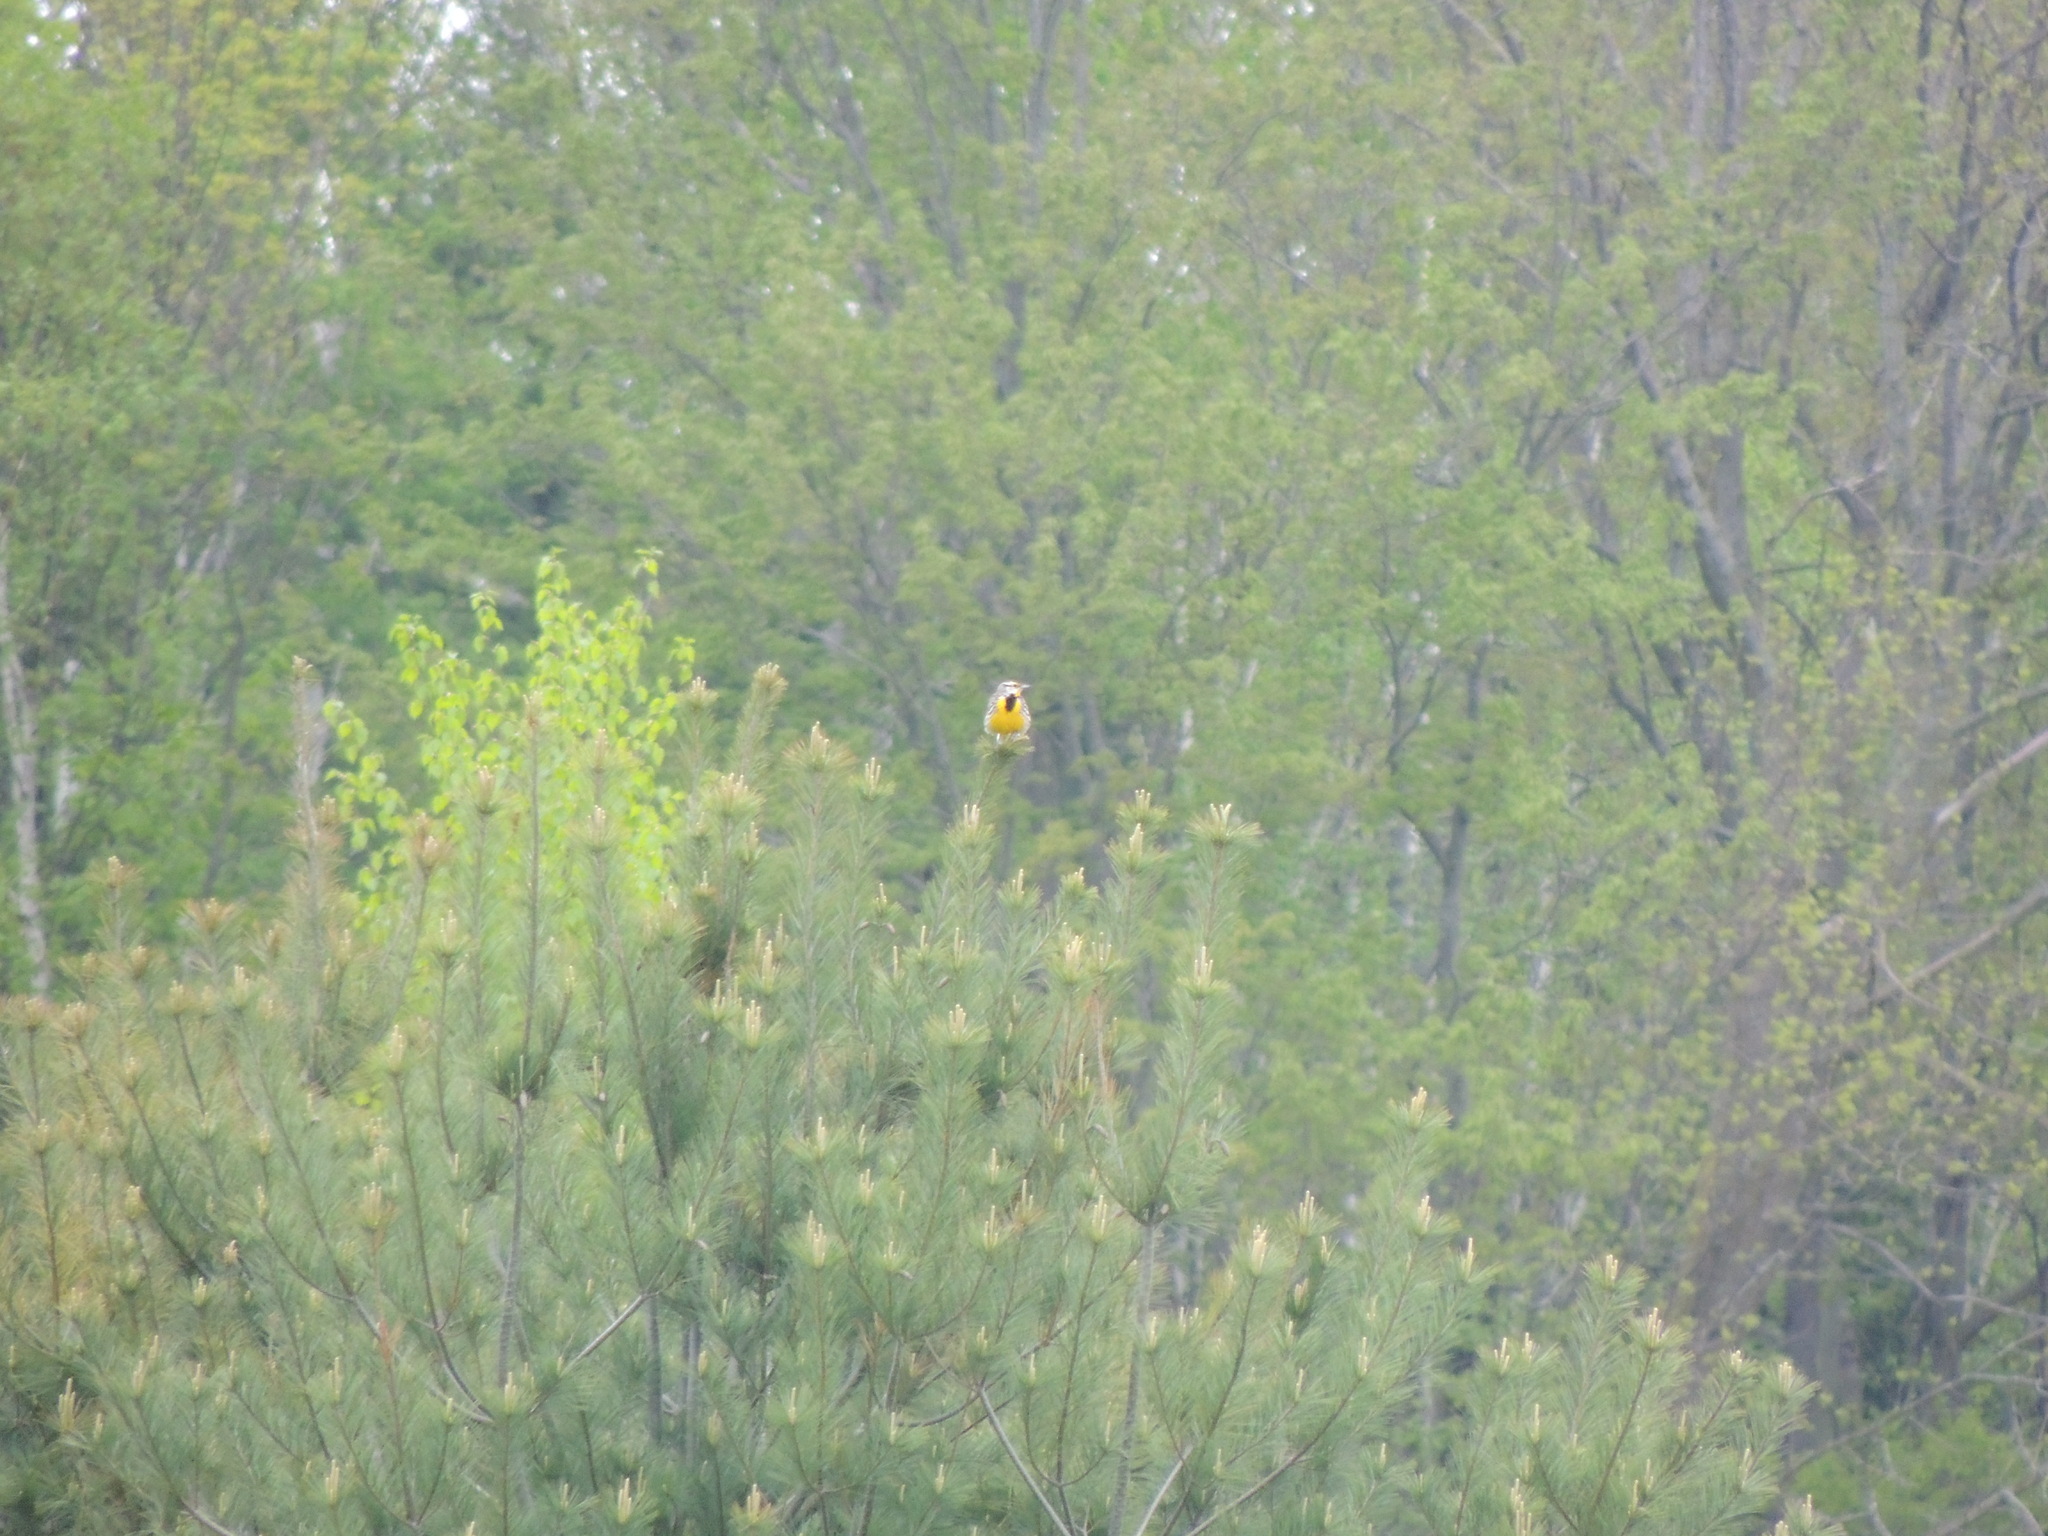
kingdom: Animalia
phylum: Chordata
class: Aves
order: Passeriformes
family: Icteridae
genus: Sturnella
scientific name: Sturnella magna
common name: Eastern meadowlark
